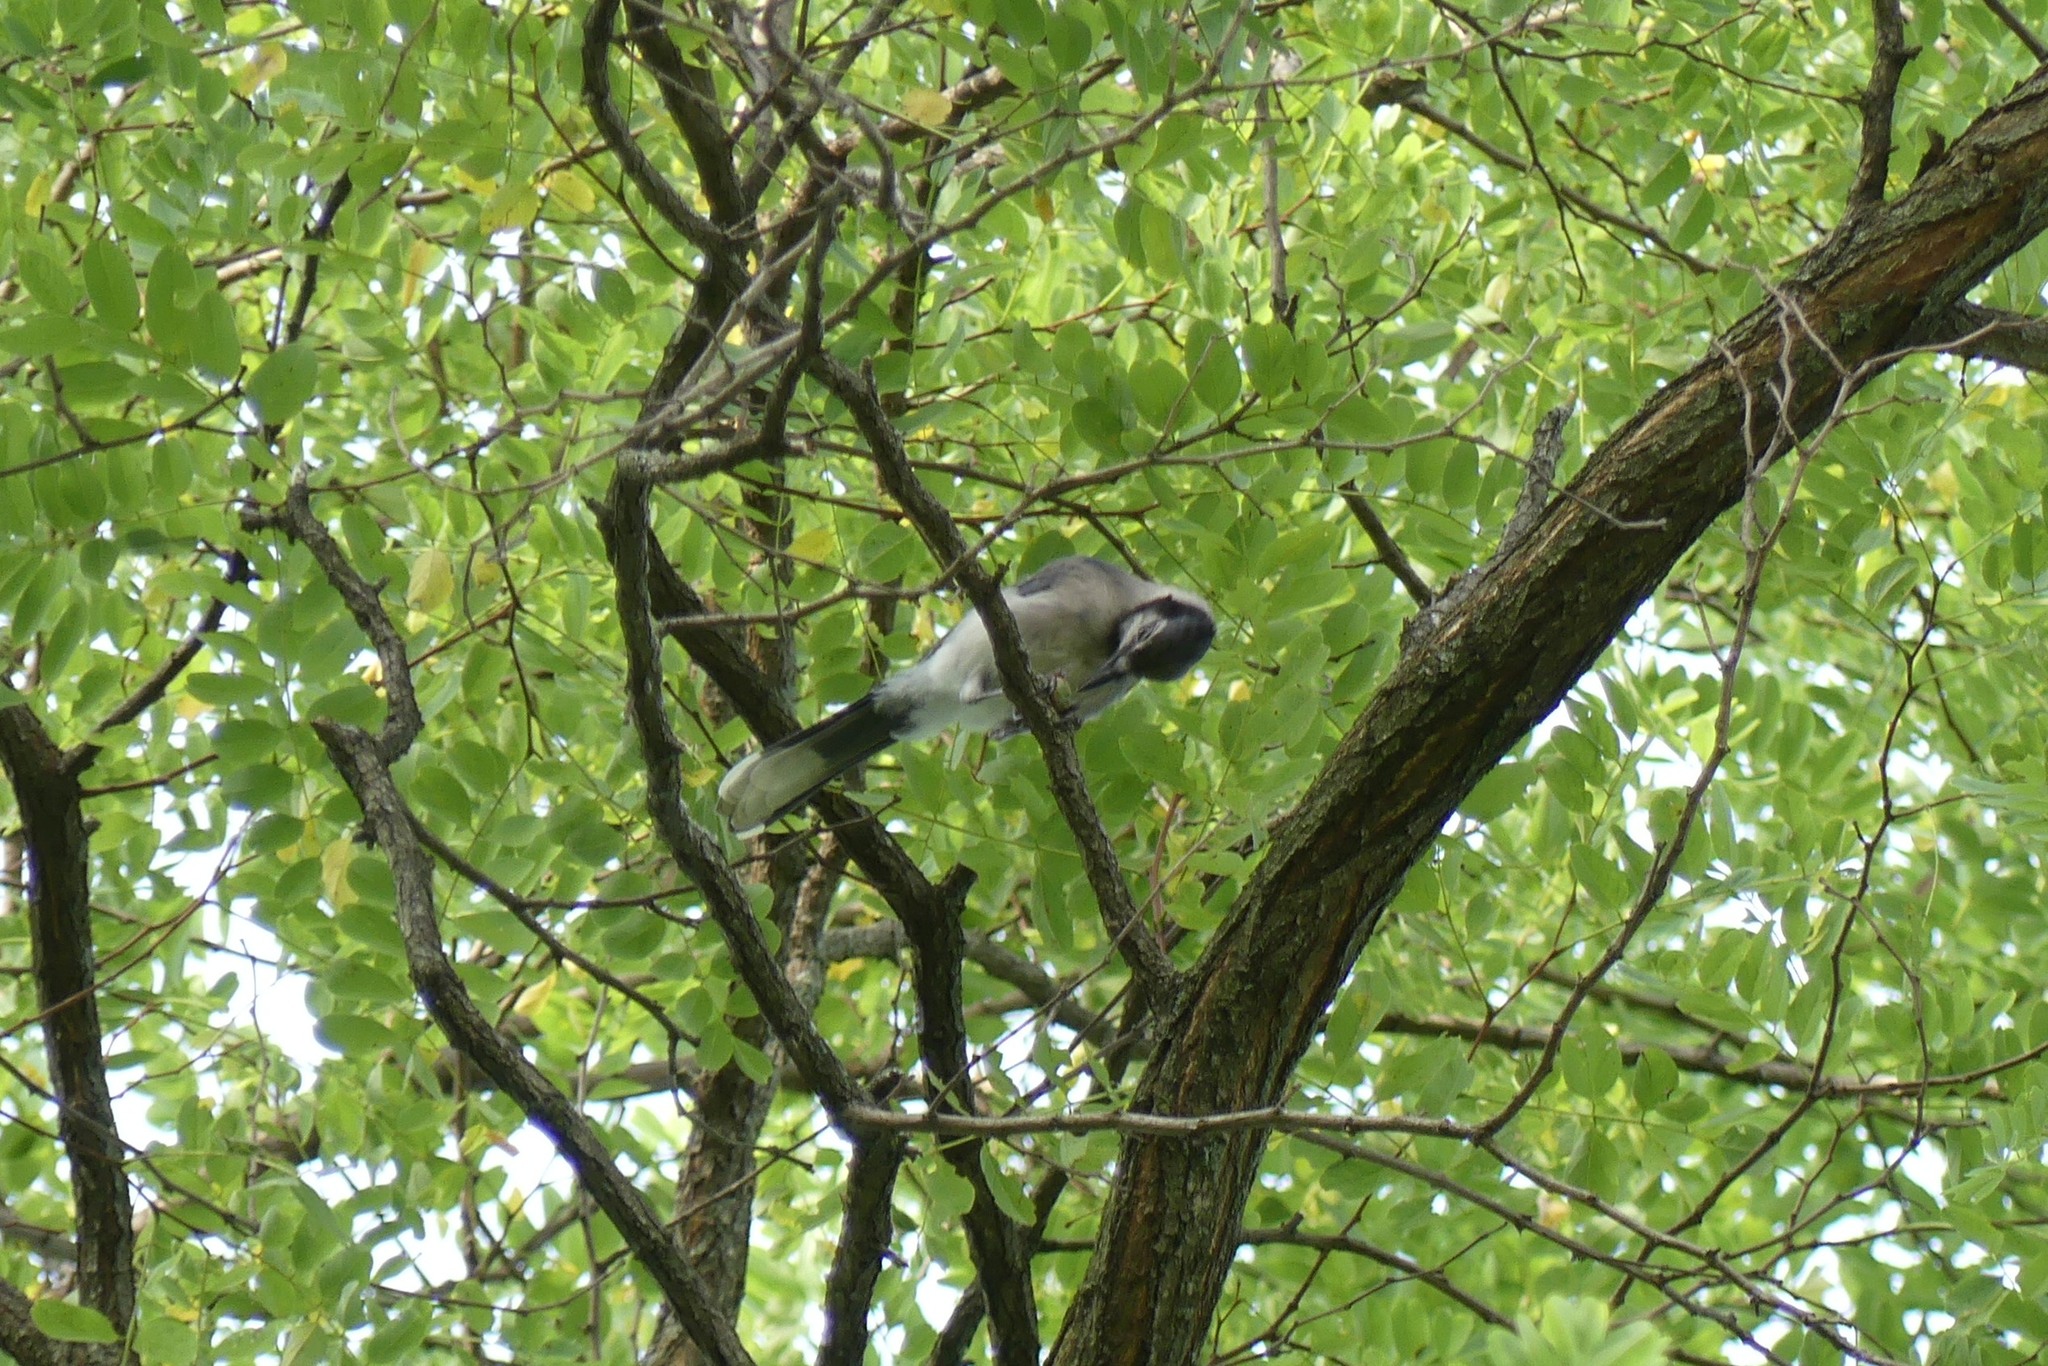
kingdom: Animalia
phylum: Chordata
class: Aves
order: Passeriformes
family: Corvidae
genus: Cyanocitta
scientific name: Cyanocitta cristata
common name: Blue jay
